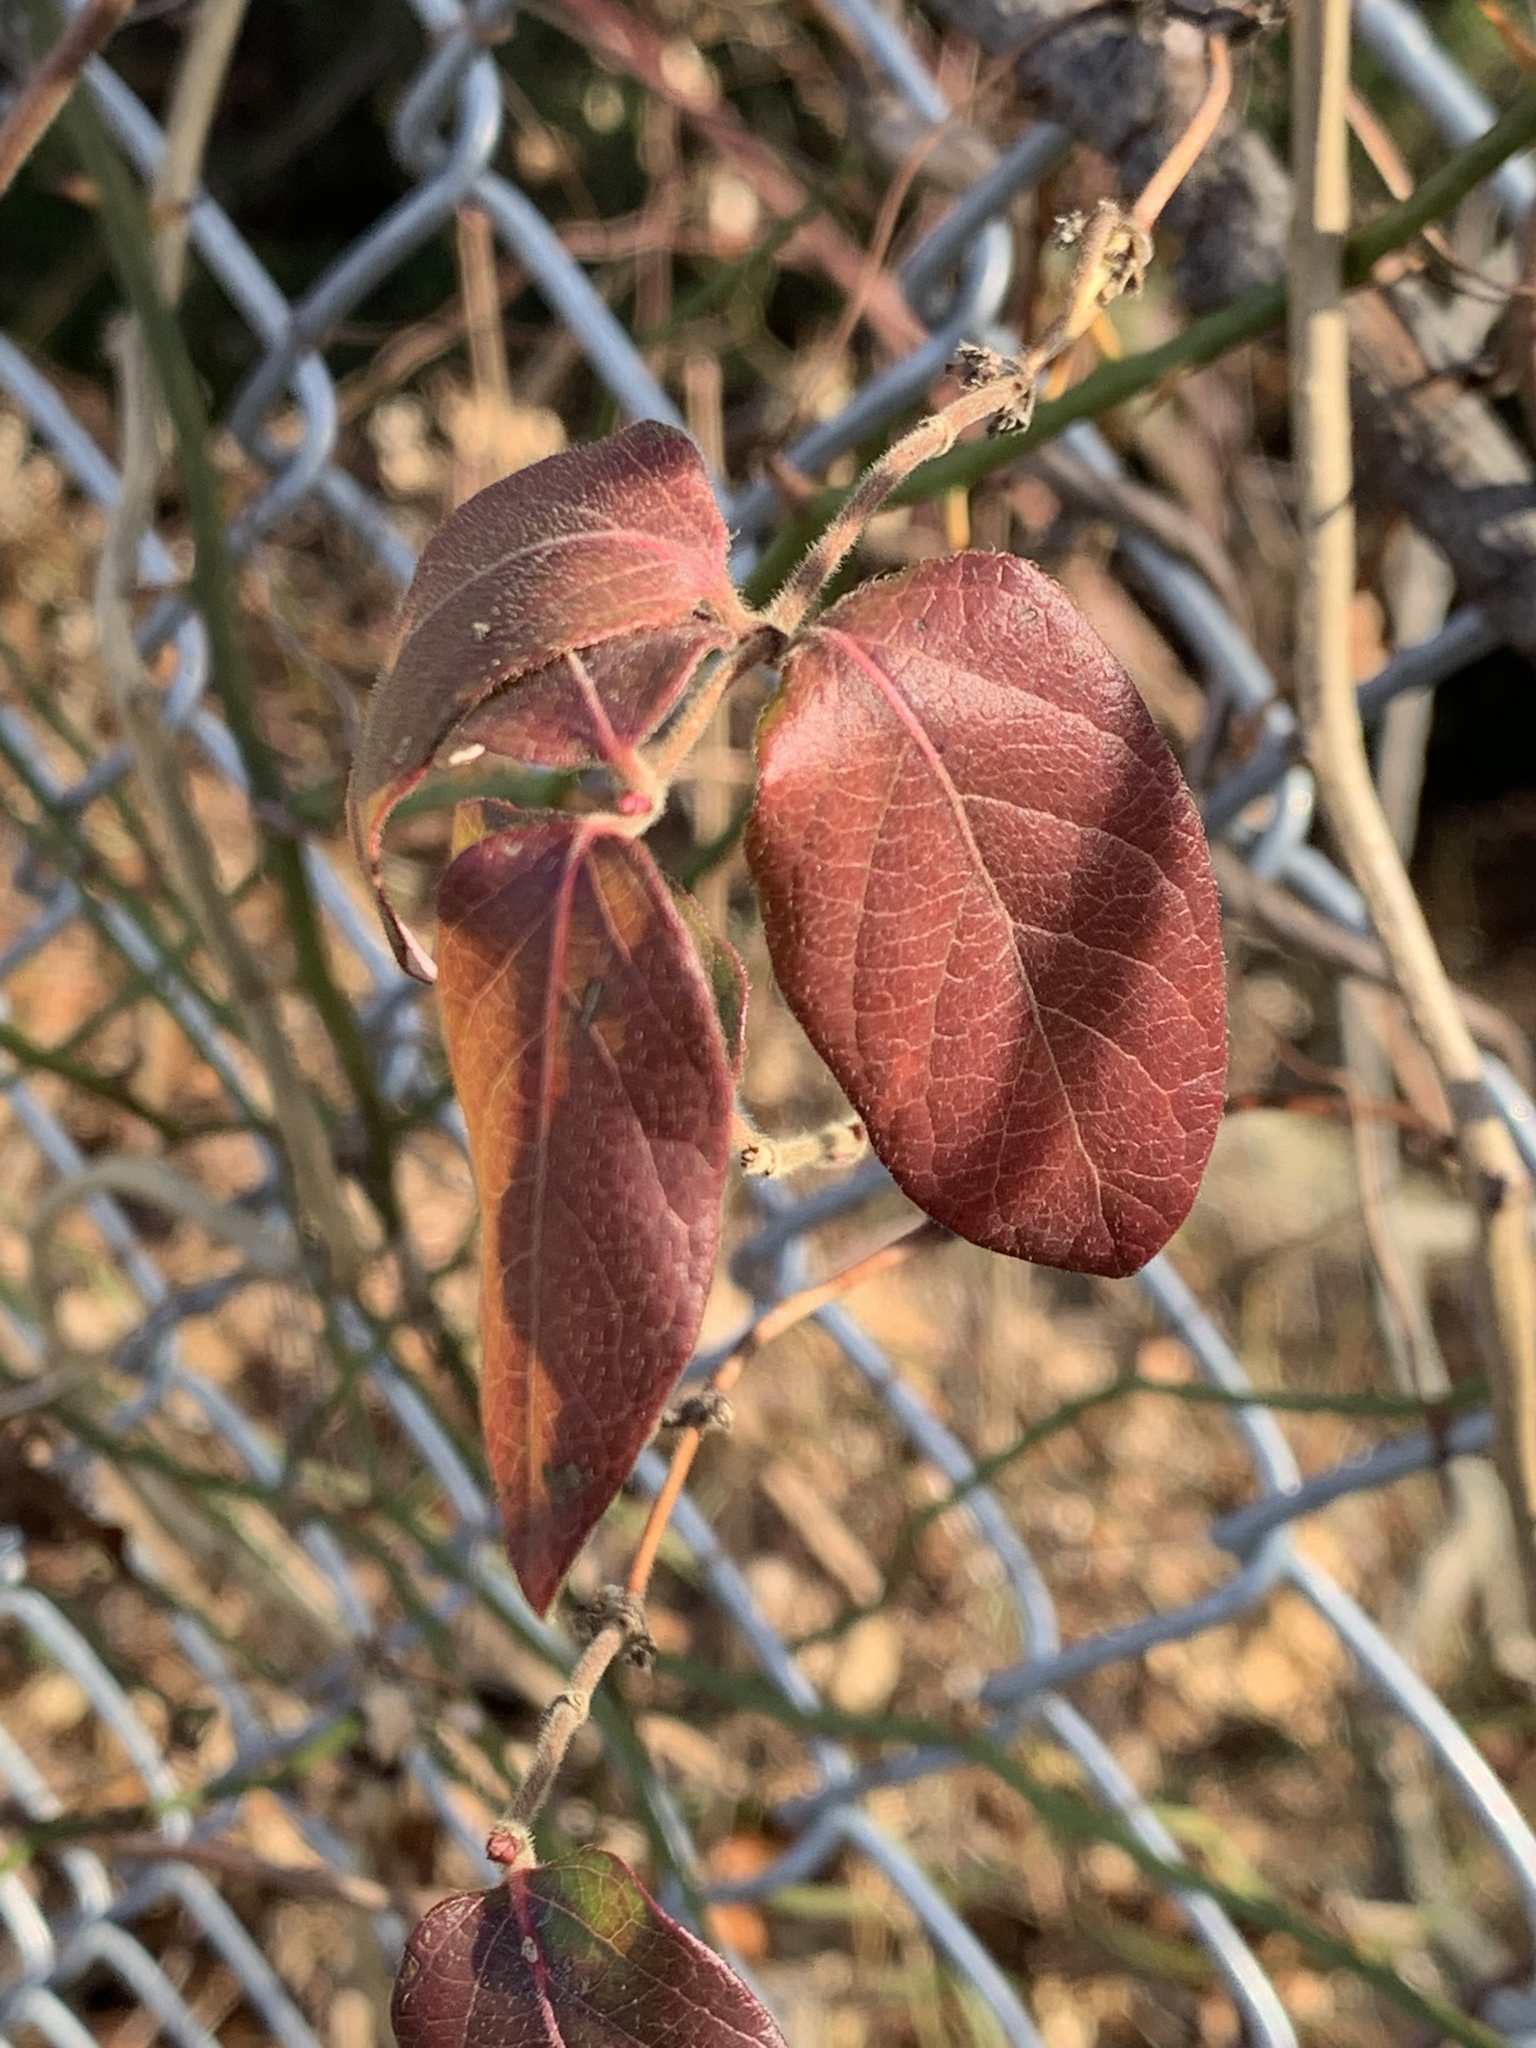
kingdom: Plantae
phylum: Tracheophyta
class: Magnoliopsida
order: Dipsacales
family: Caprifoliaceae
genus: Lonicera
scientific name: Lonicera japonica
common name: Japanese honeysuckle
